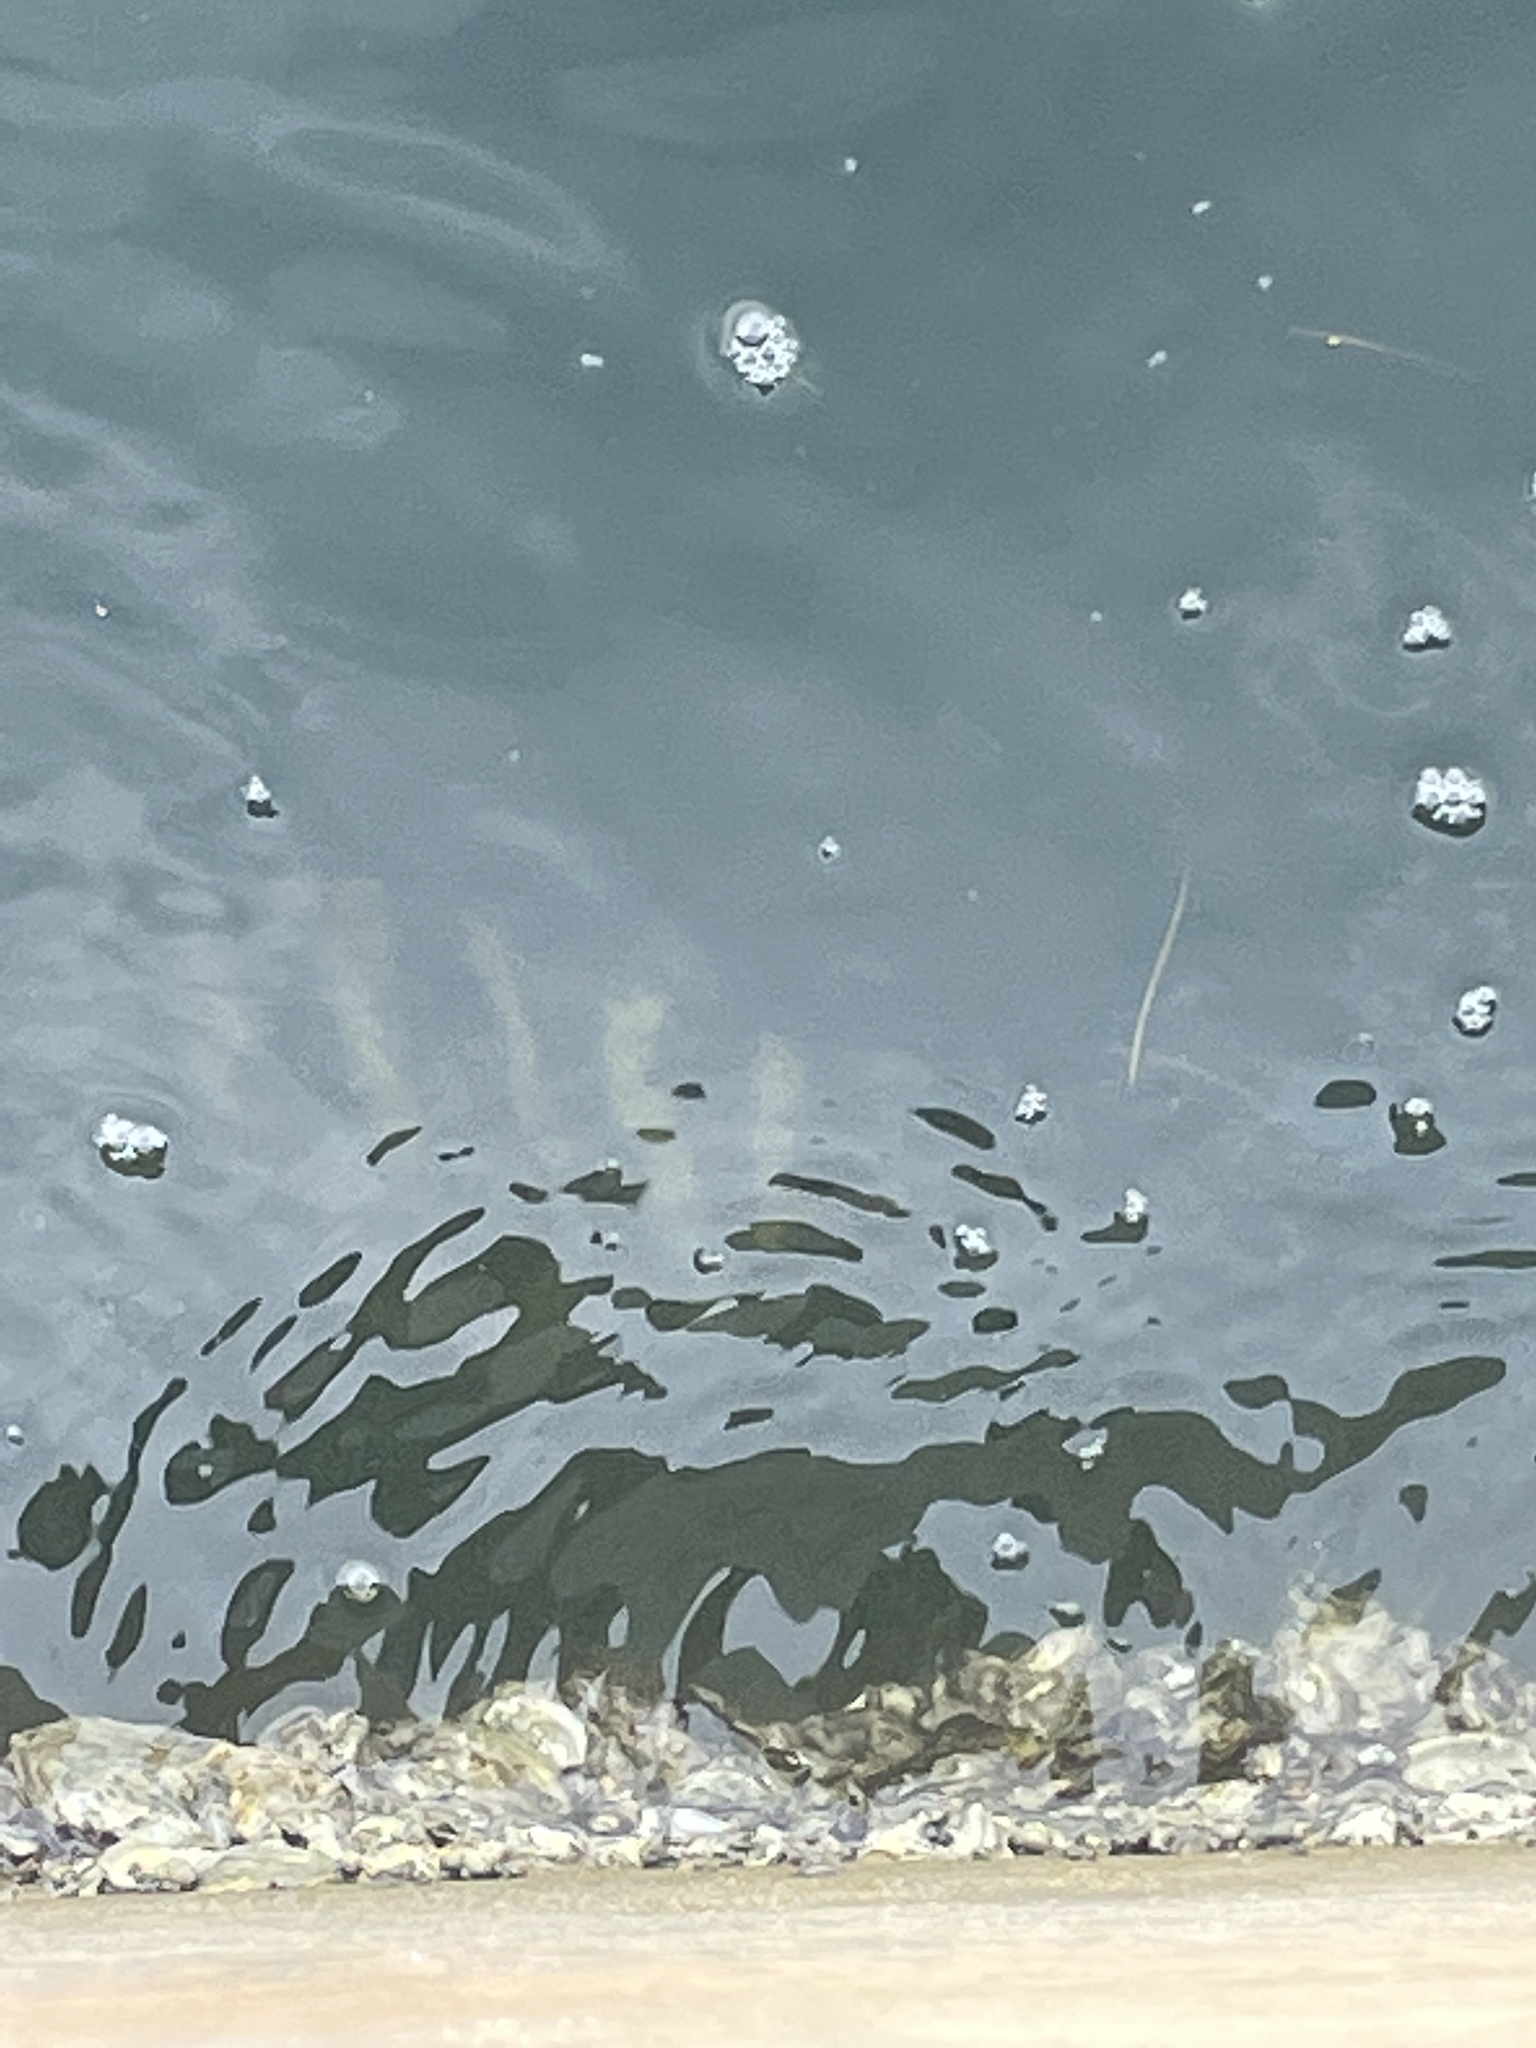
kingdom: Animalia
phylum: Chordata
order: Perciformes
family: Sparidae
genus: Archosargus
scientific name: Archosargus probatocephalus
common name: Sheepshead
